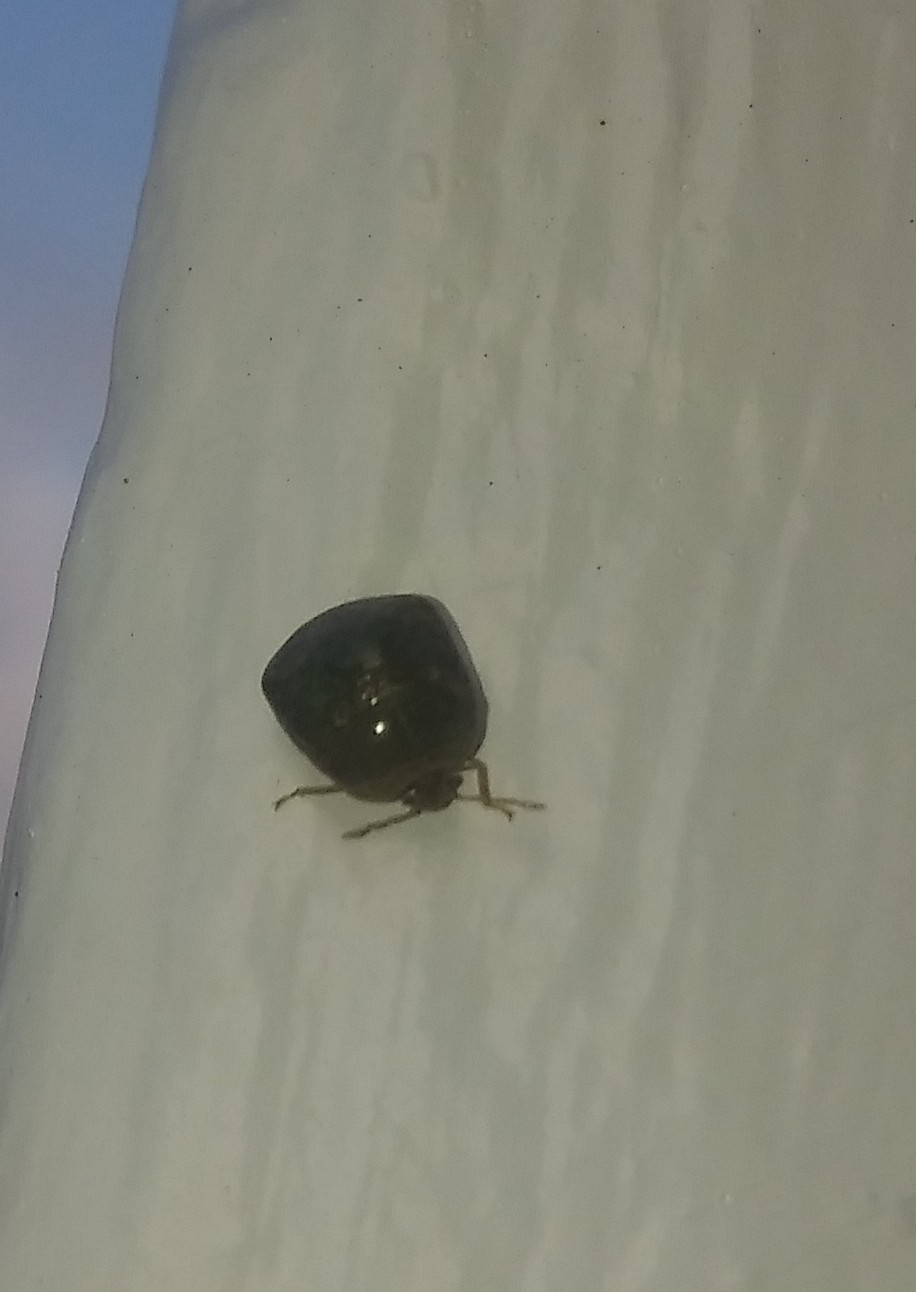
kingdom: Animalia
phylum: Arthropoda
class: Insecta
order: Hemiptera
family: Plataspidae
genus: Megacopta
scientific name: Megacopta cribraria
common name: Bean plataspid
